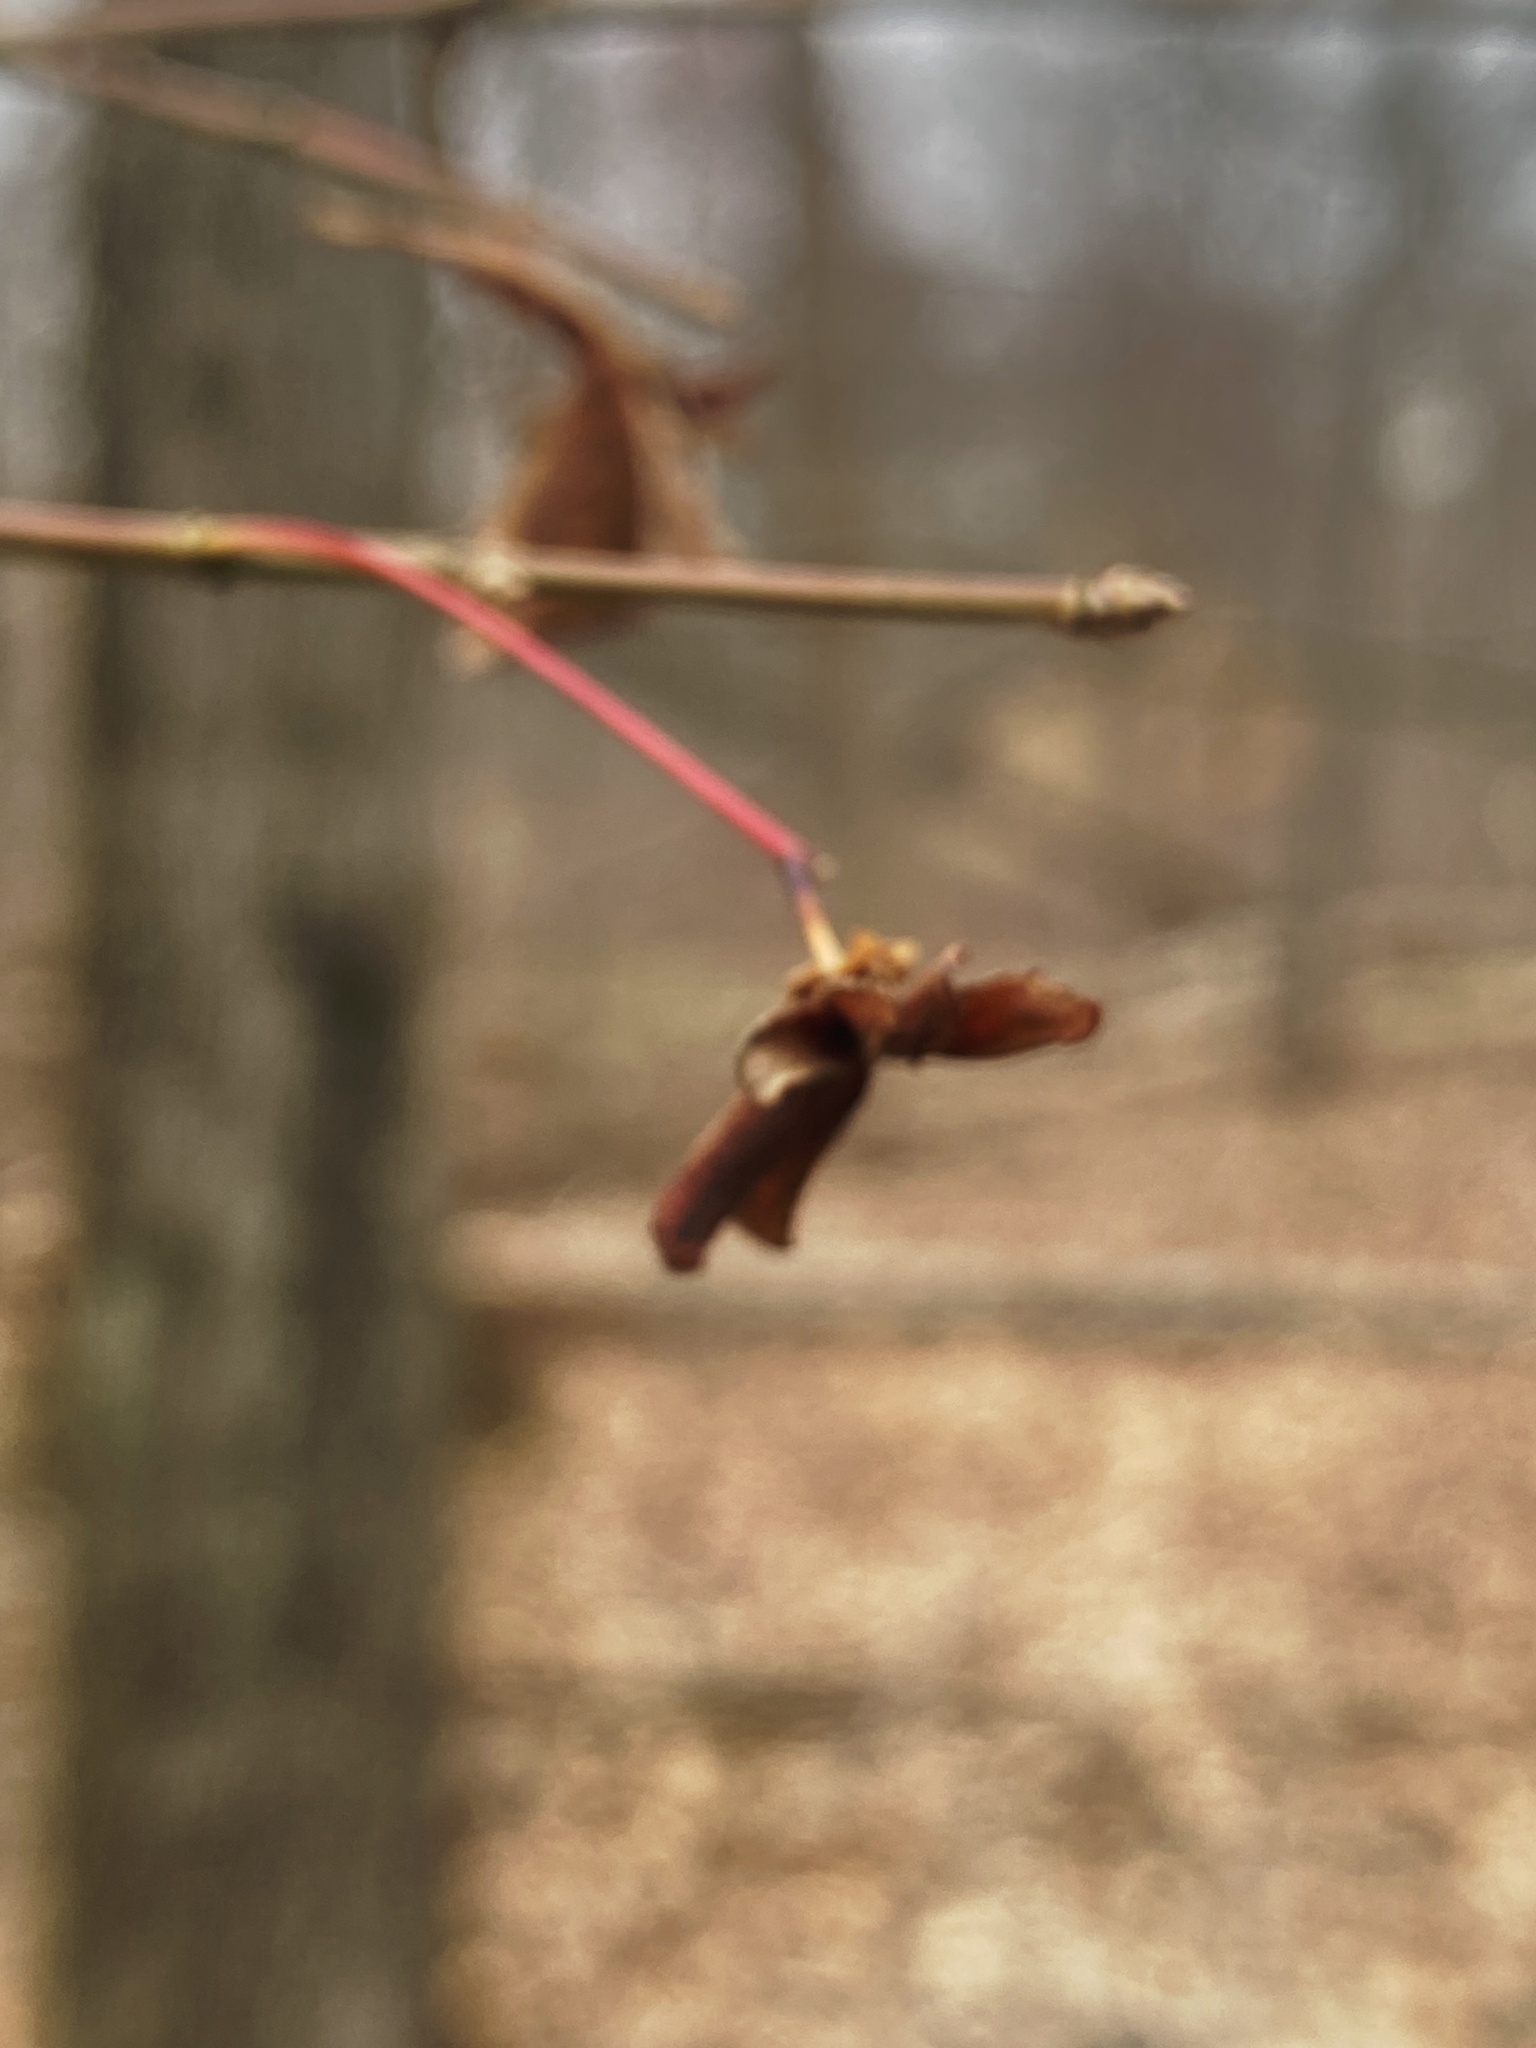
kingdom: Plantae
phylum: Tracheophyta
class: Magnoliopsida
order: Celastrales
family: Celastraceae
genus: Euonymus
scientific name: Euonymus alatus
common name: Winged euonymus
